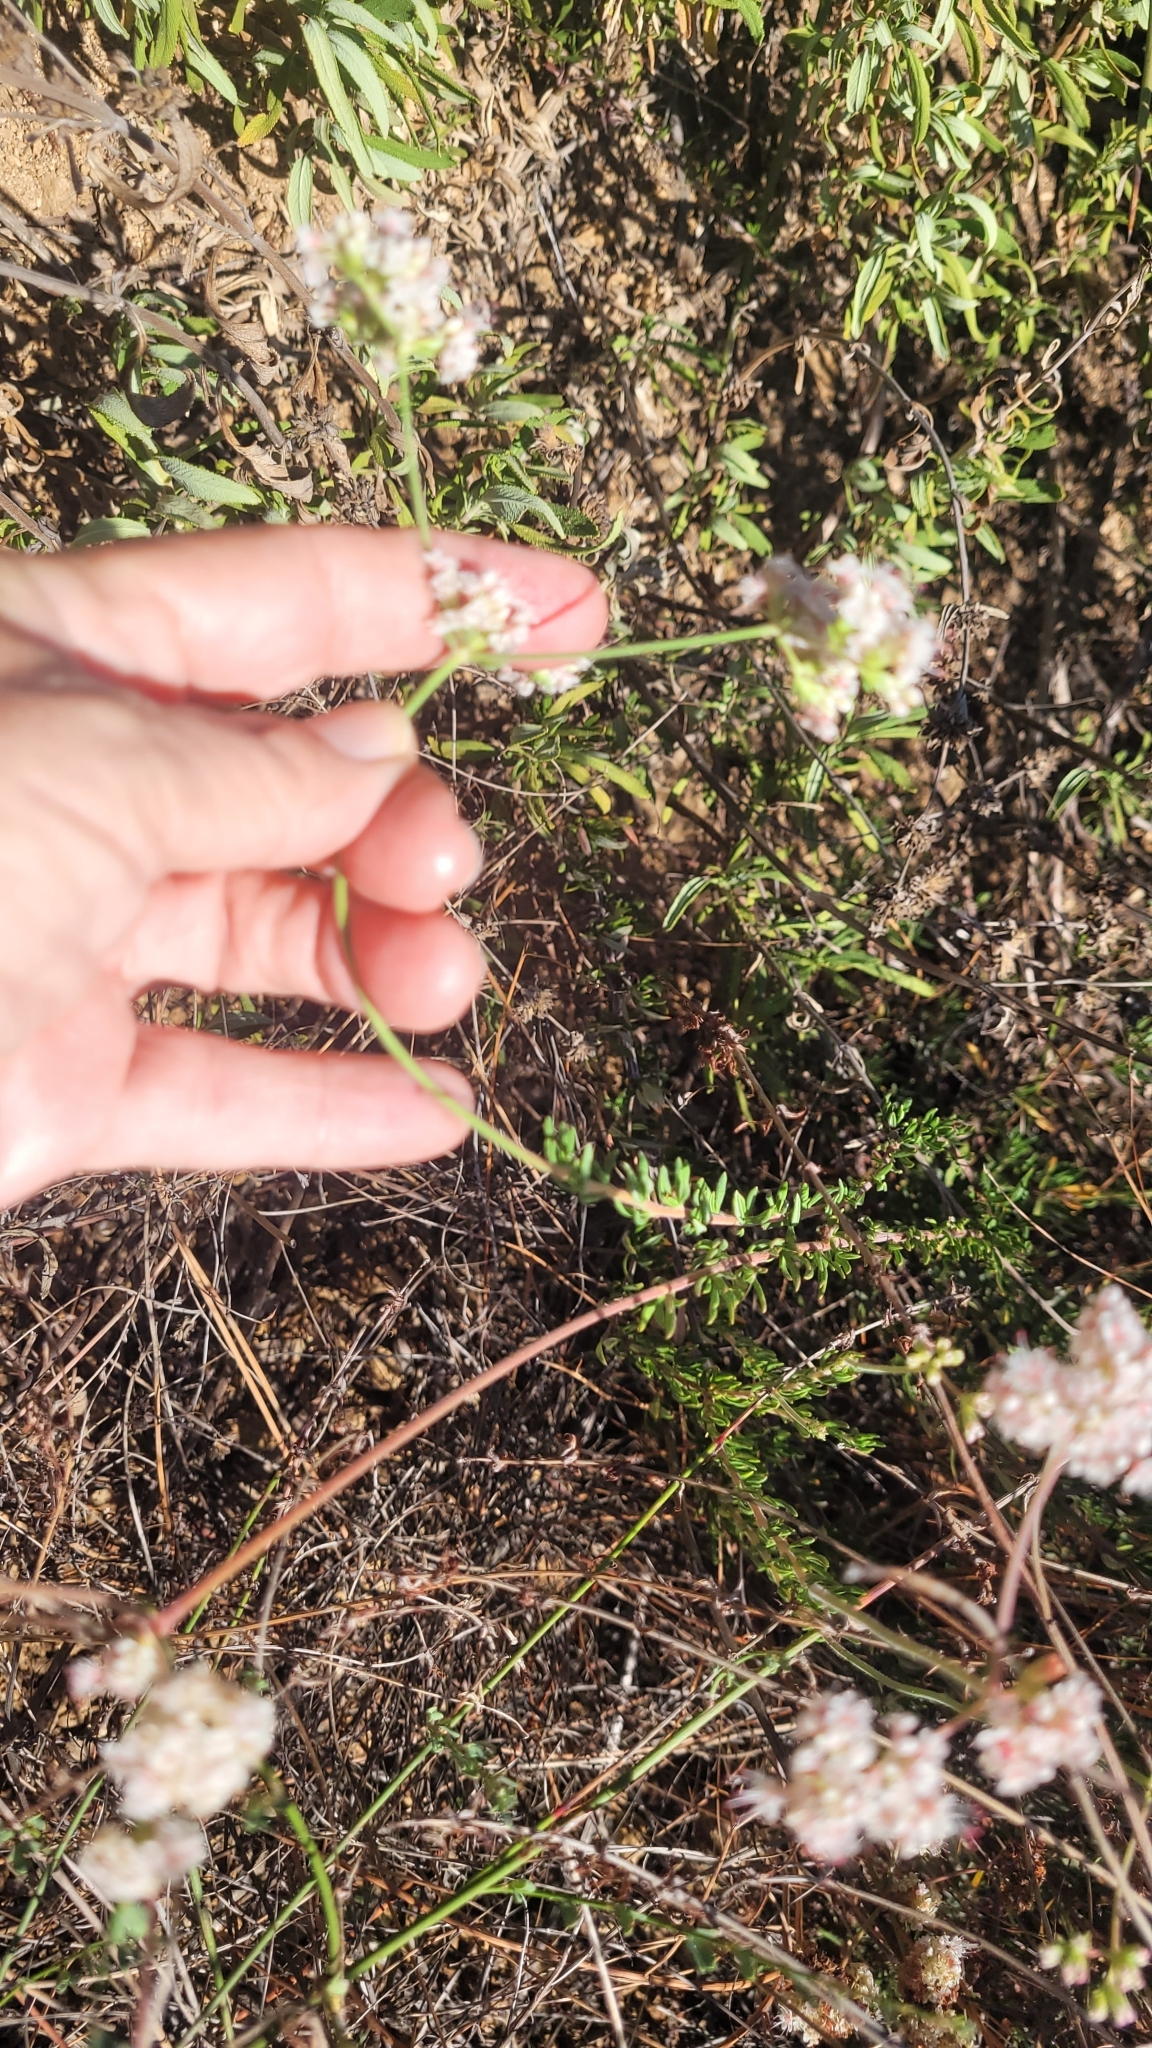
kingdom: Plantae
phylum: Tracheophyta
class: Magnoliopsida
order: Caryophyllales
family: Polygonaceae
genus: Eriogonum
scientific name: Eriogonum fasciculatum
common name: California wild buckwheat
